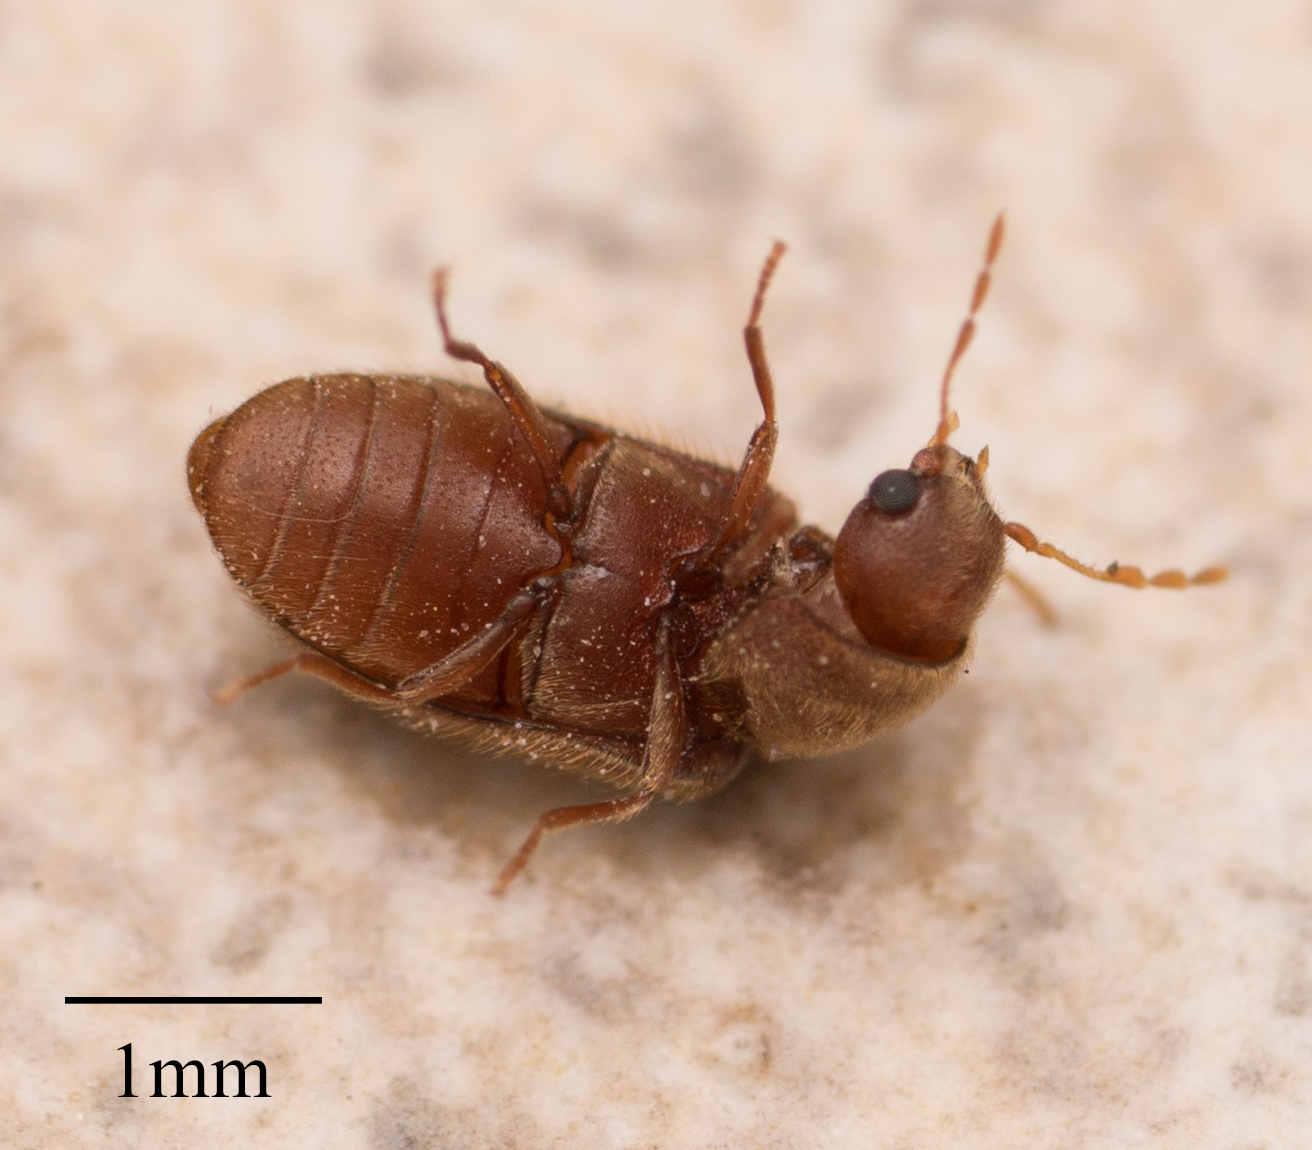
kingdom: Animalia
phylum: Arthropoda
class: Insecta
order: Coleoptera
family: Anobiidae
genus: Stegobium
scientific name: Stegobium paniceum
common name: Drugstore beetle
